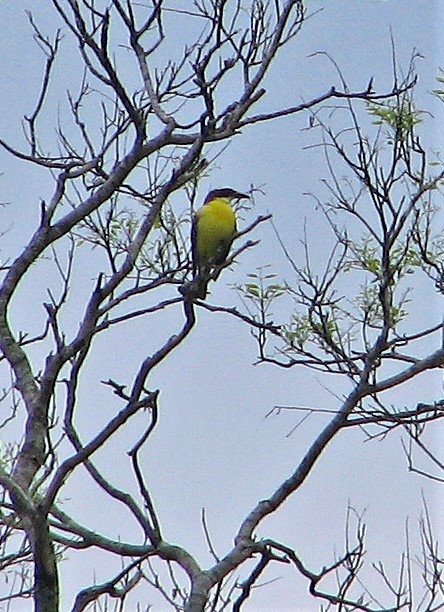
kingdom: Animalia
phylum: Chordata
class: Aves
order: Passeriformes
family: Tyrannidae
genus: Megarynchus
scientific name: Megarynchus pitangua
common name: Boat-billed flycatcher
